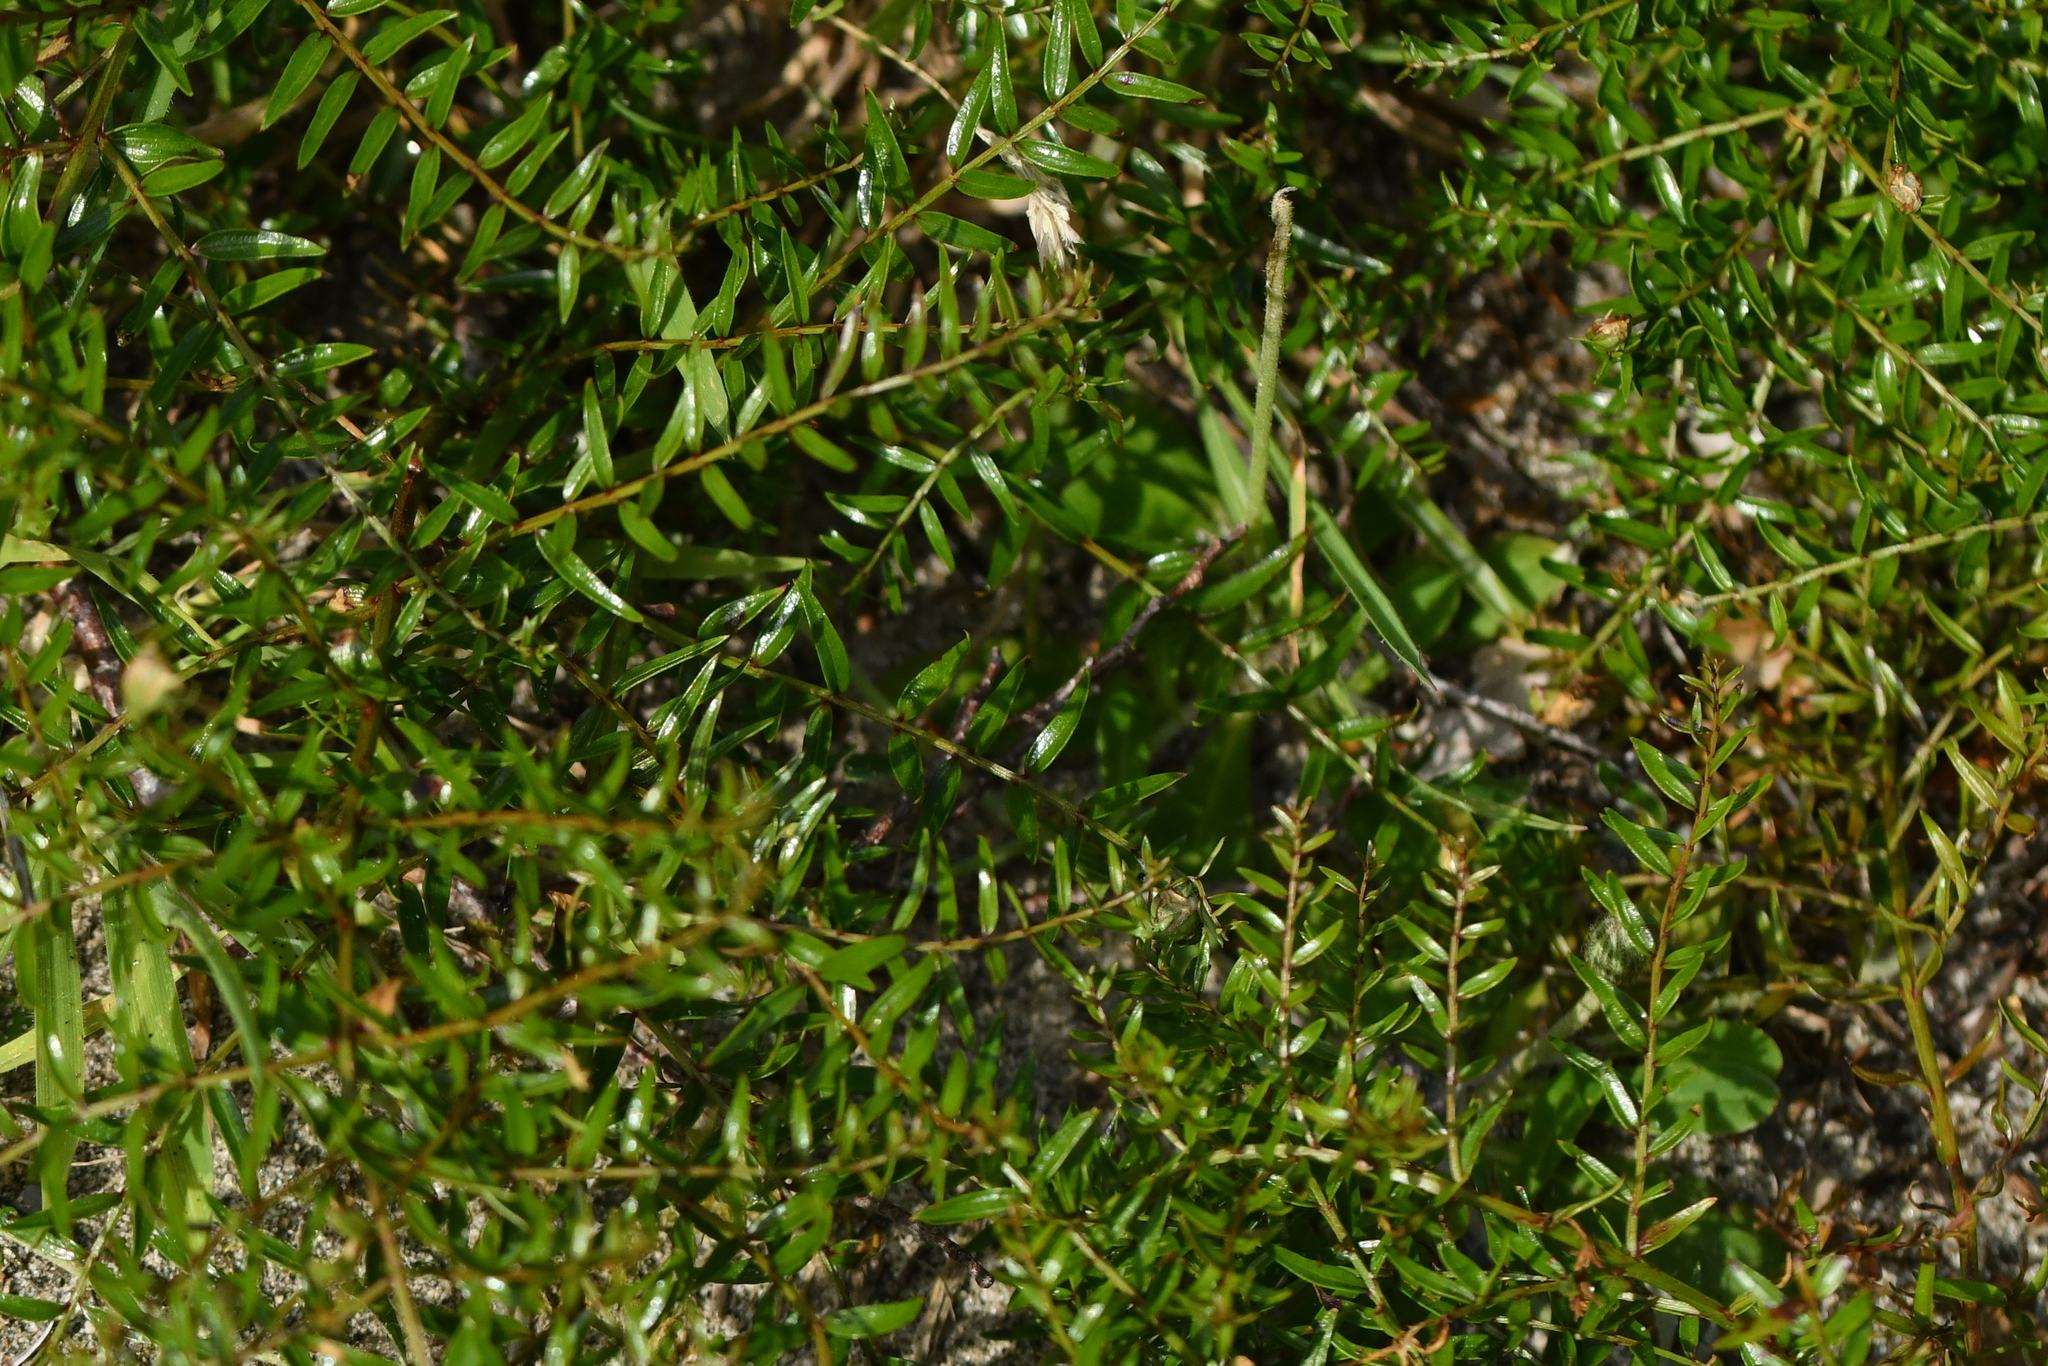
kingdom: Plantae
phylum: Tracheophyta
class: Magnoliopsida
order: Cucurbitales
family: Coriariaceae
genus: Coriaria
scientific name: Coriaria angustissima
